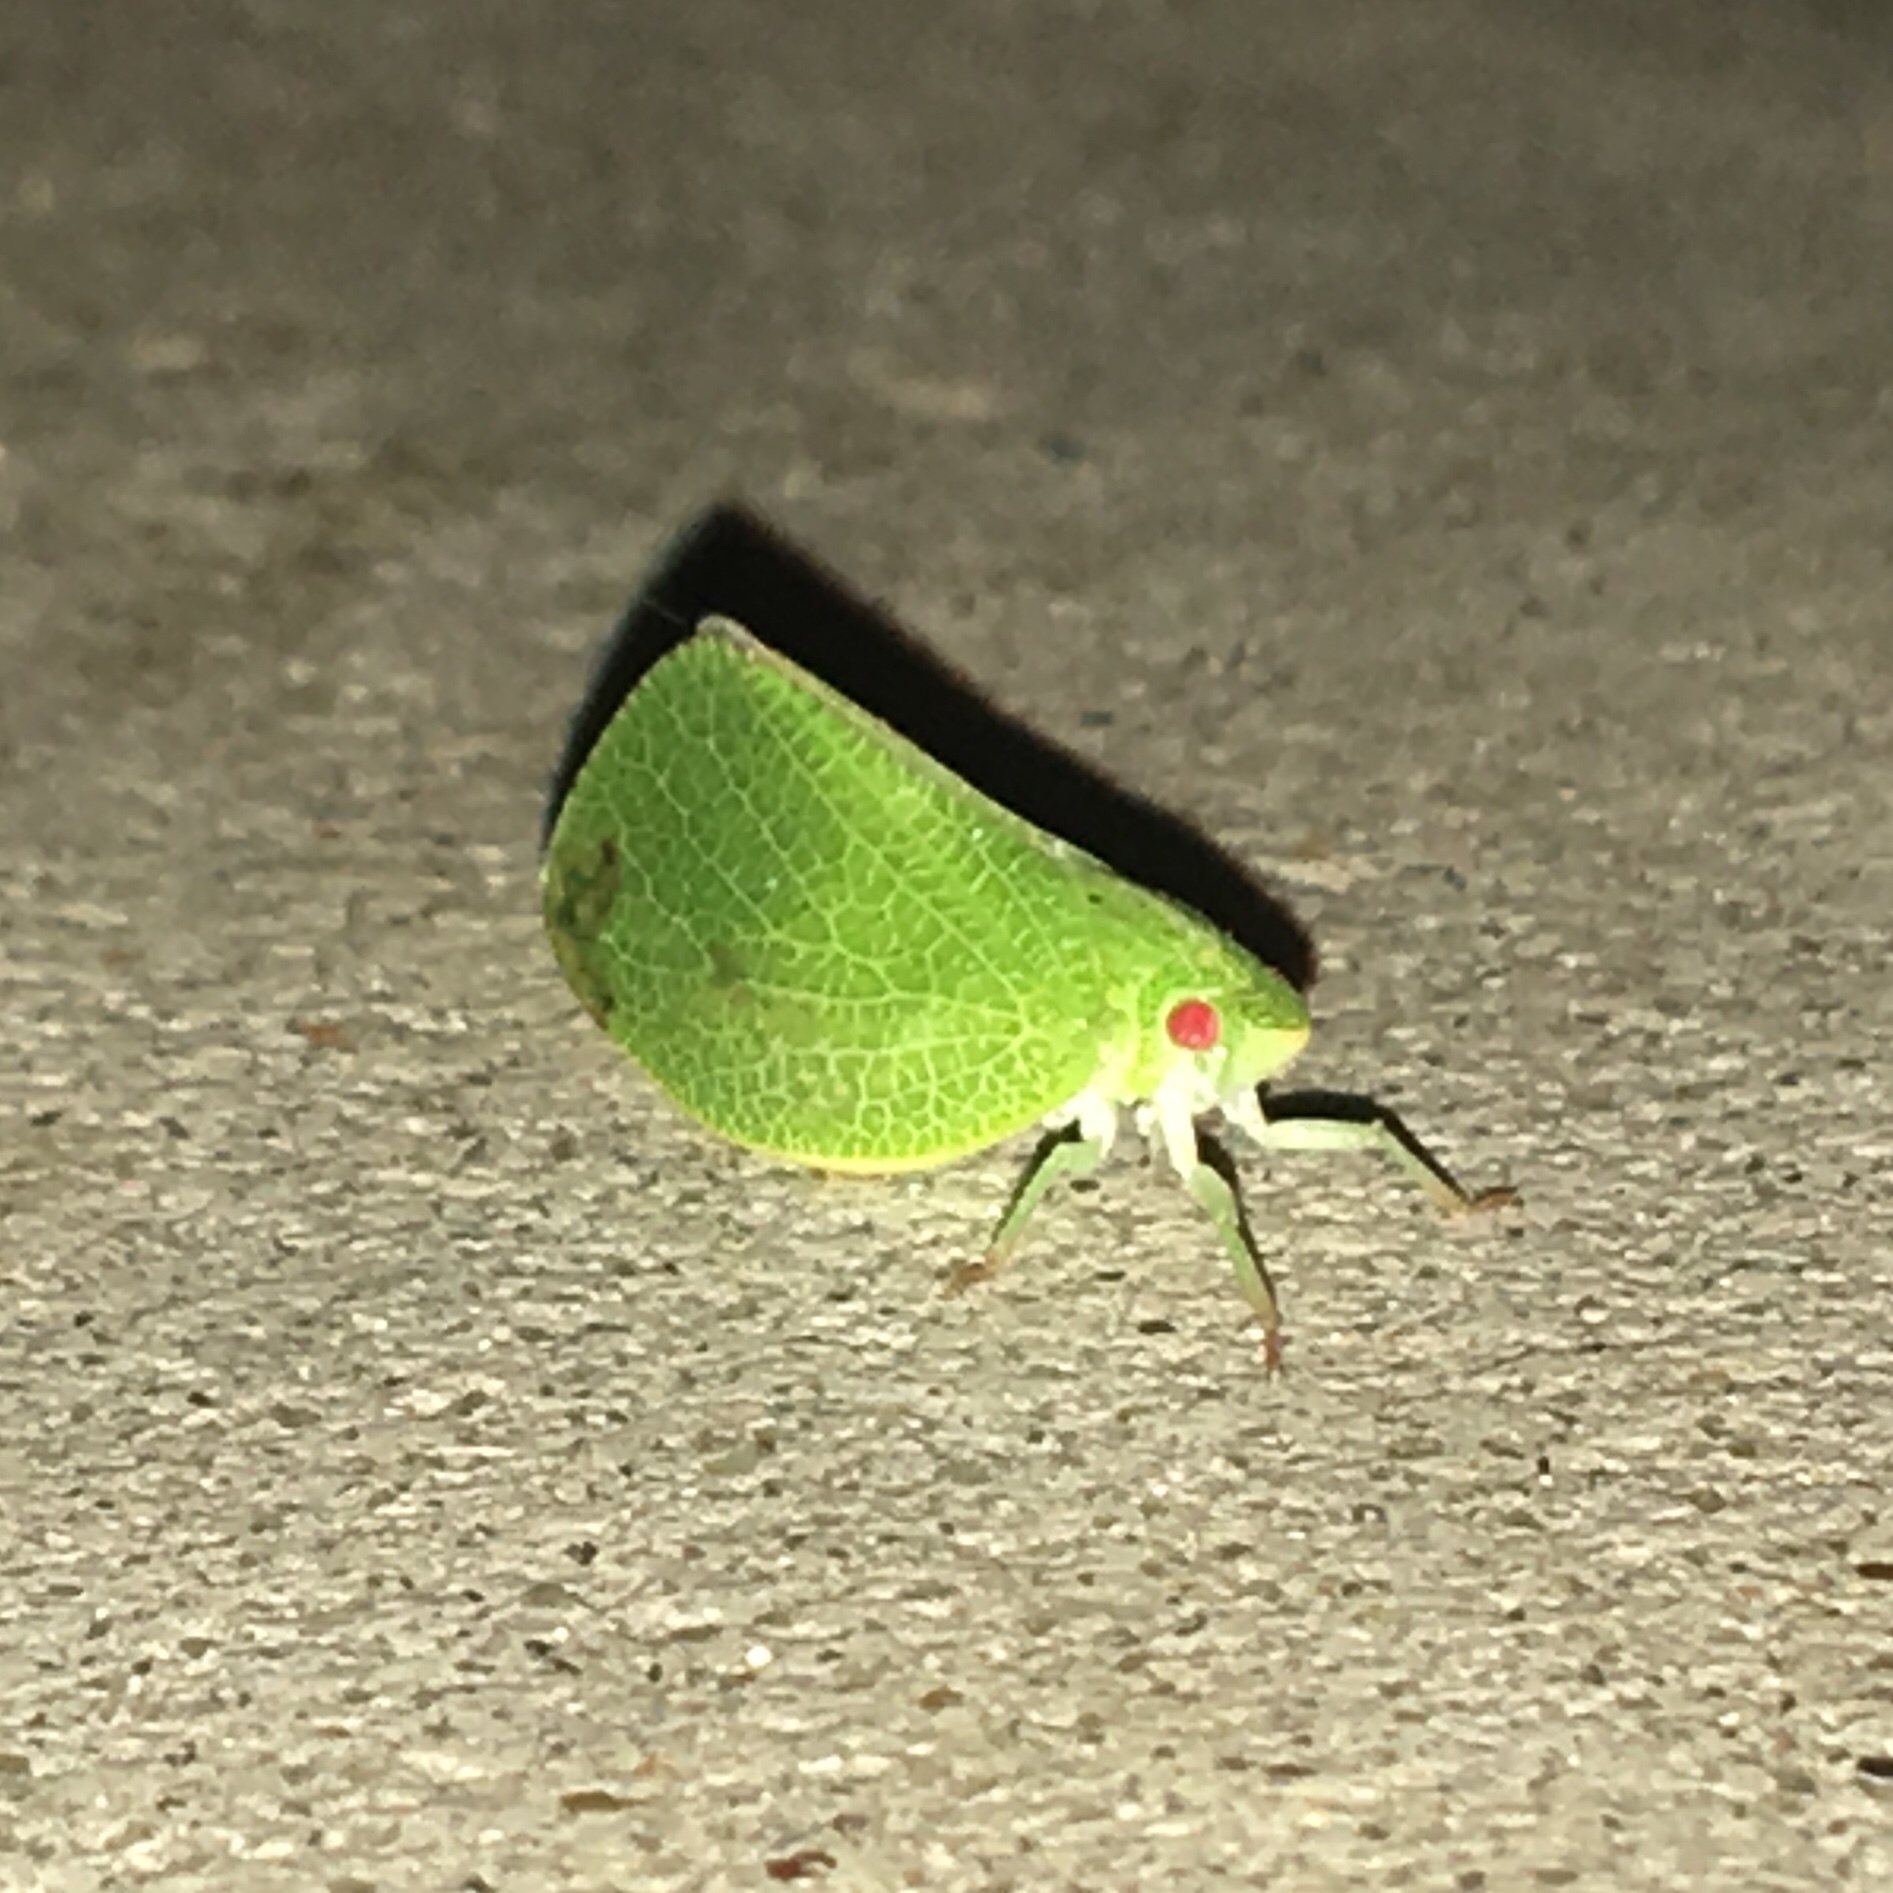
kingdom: Animalia
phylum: Arthropoda
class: Insecta
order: Hemiptera
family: Acanaloniidae
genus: Acanalonia
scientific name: Acanalonia conica
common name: Green cone-headed planthopper
